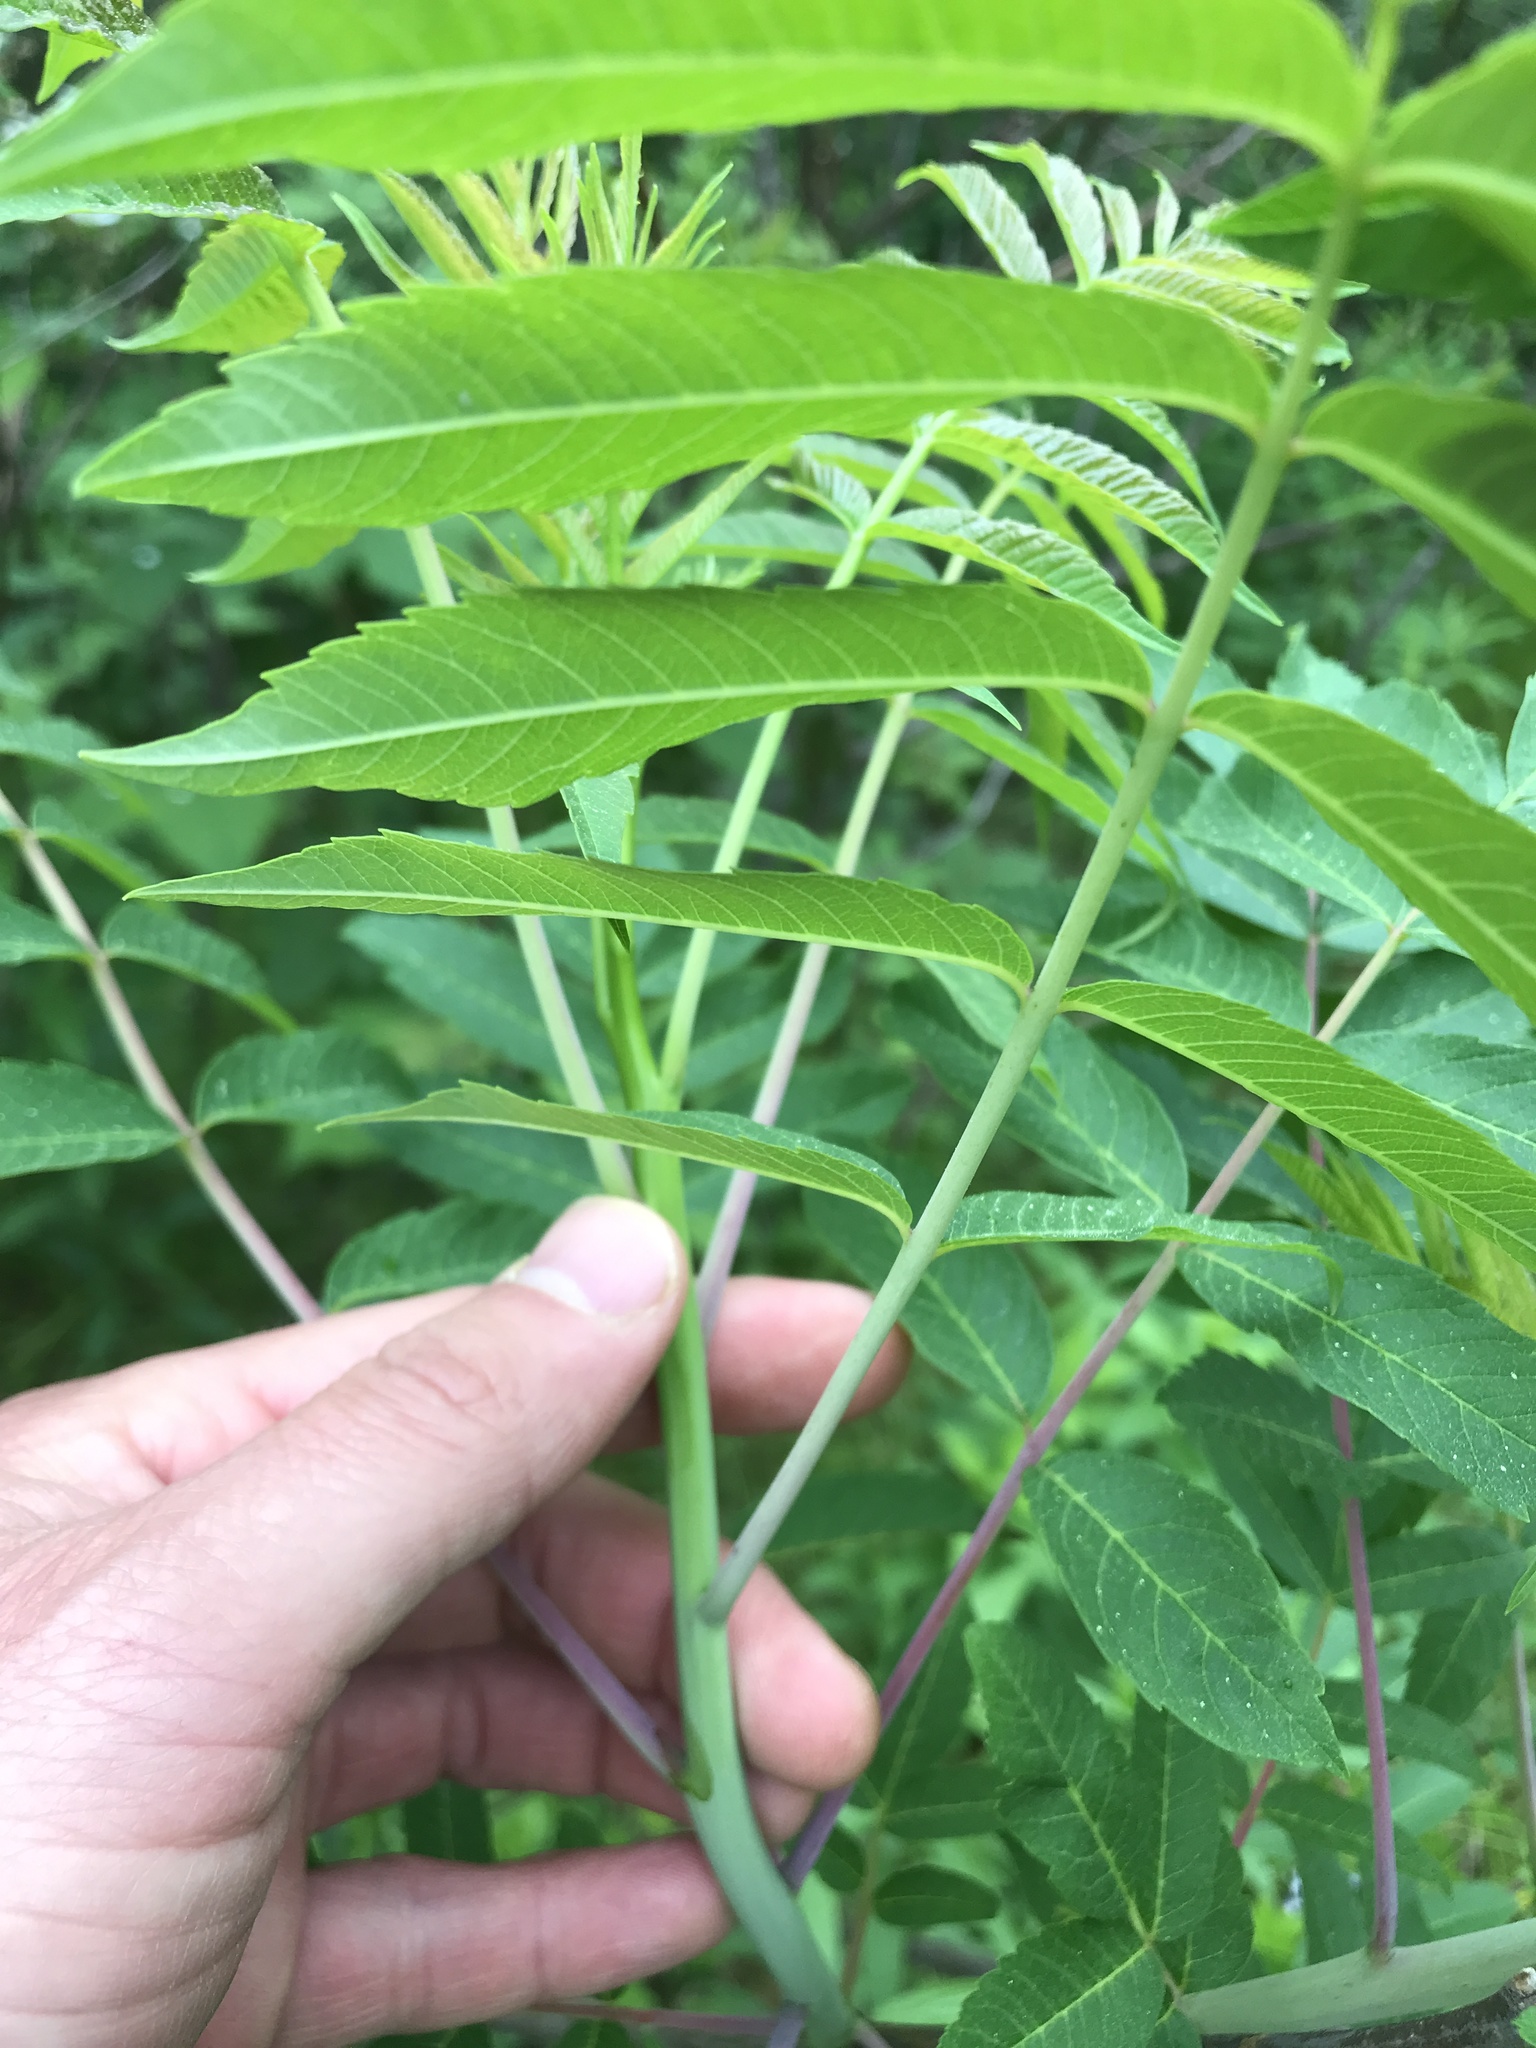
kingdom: Plantae
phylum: Tracheophyta
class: Magnoliopsida
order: Sapindales
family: Anacardiaceae
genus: Rhus
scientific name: Rhus glabra
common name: Scarlet sumac
